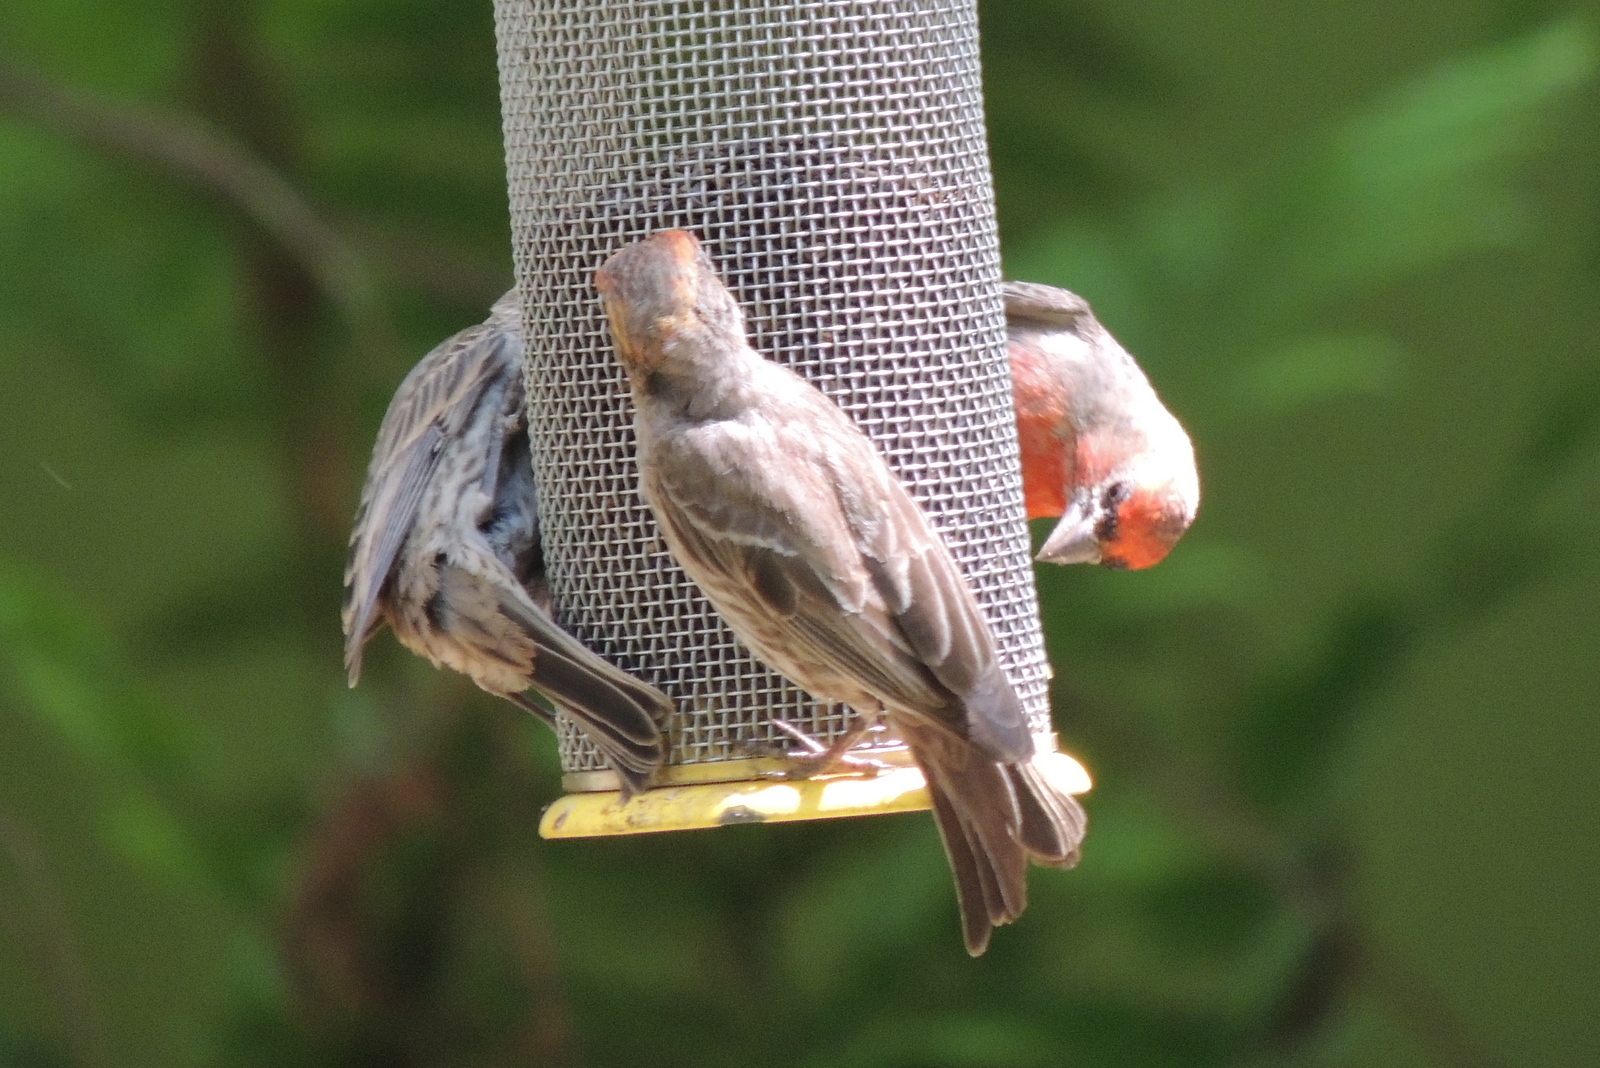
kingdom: Animalia
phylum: Chordata
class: Aves
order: Passeriformes
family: Fringillidae
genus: Haemorhous
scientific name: Haemorhous mexicanus
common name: House finch
